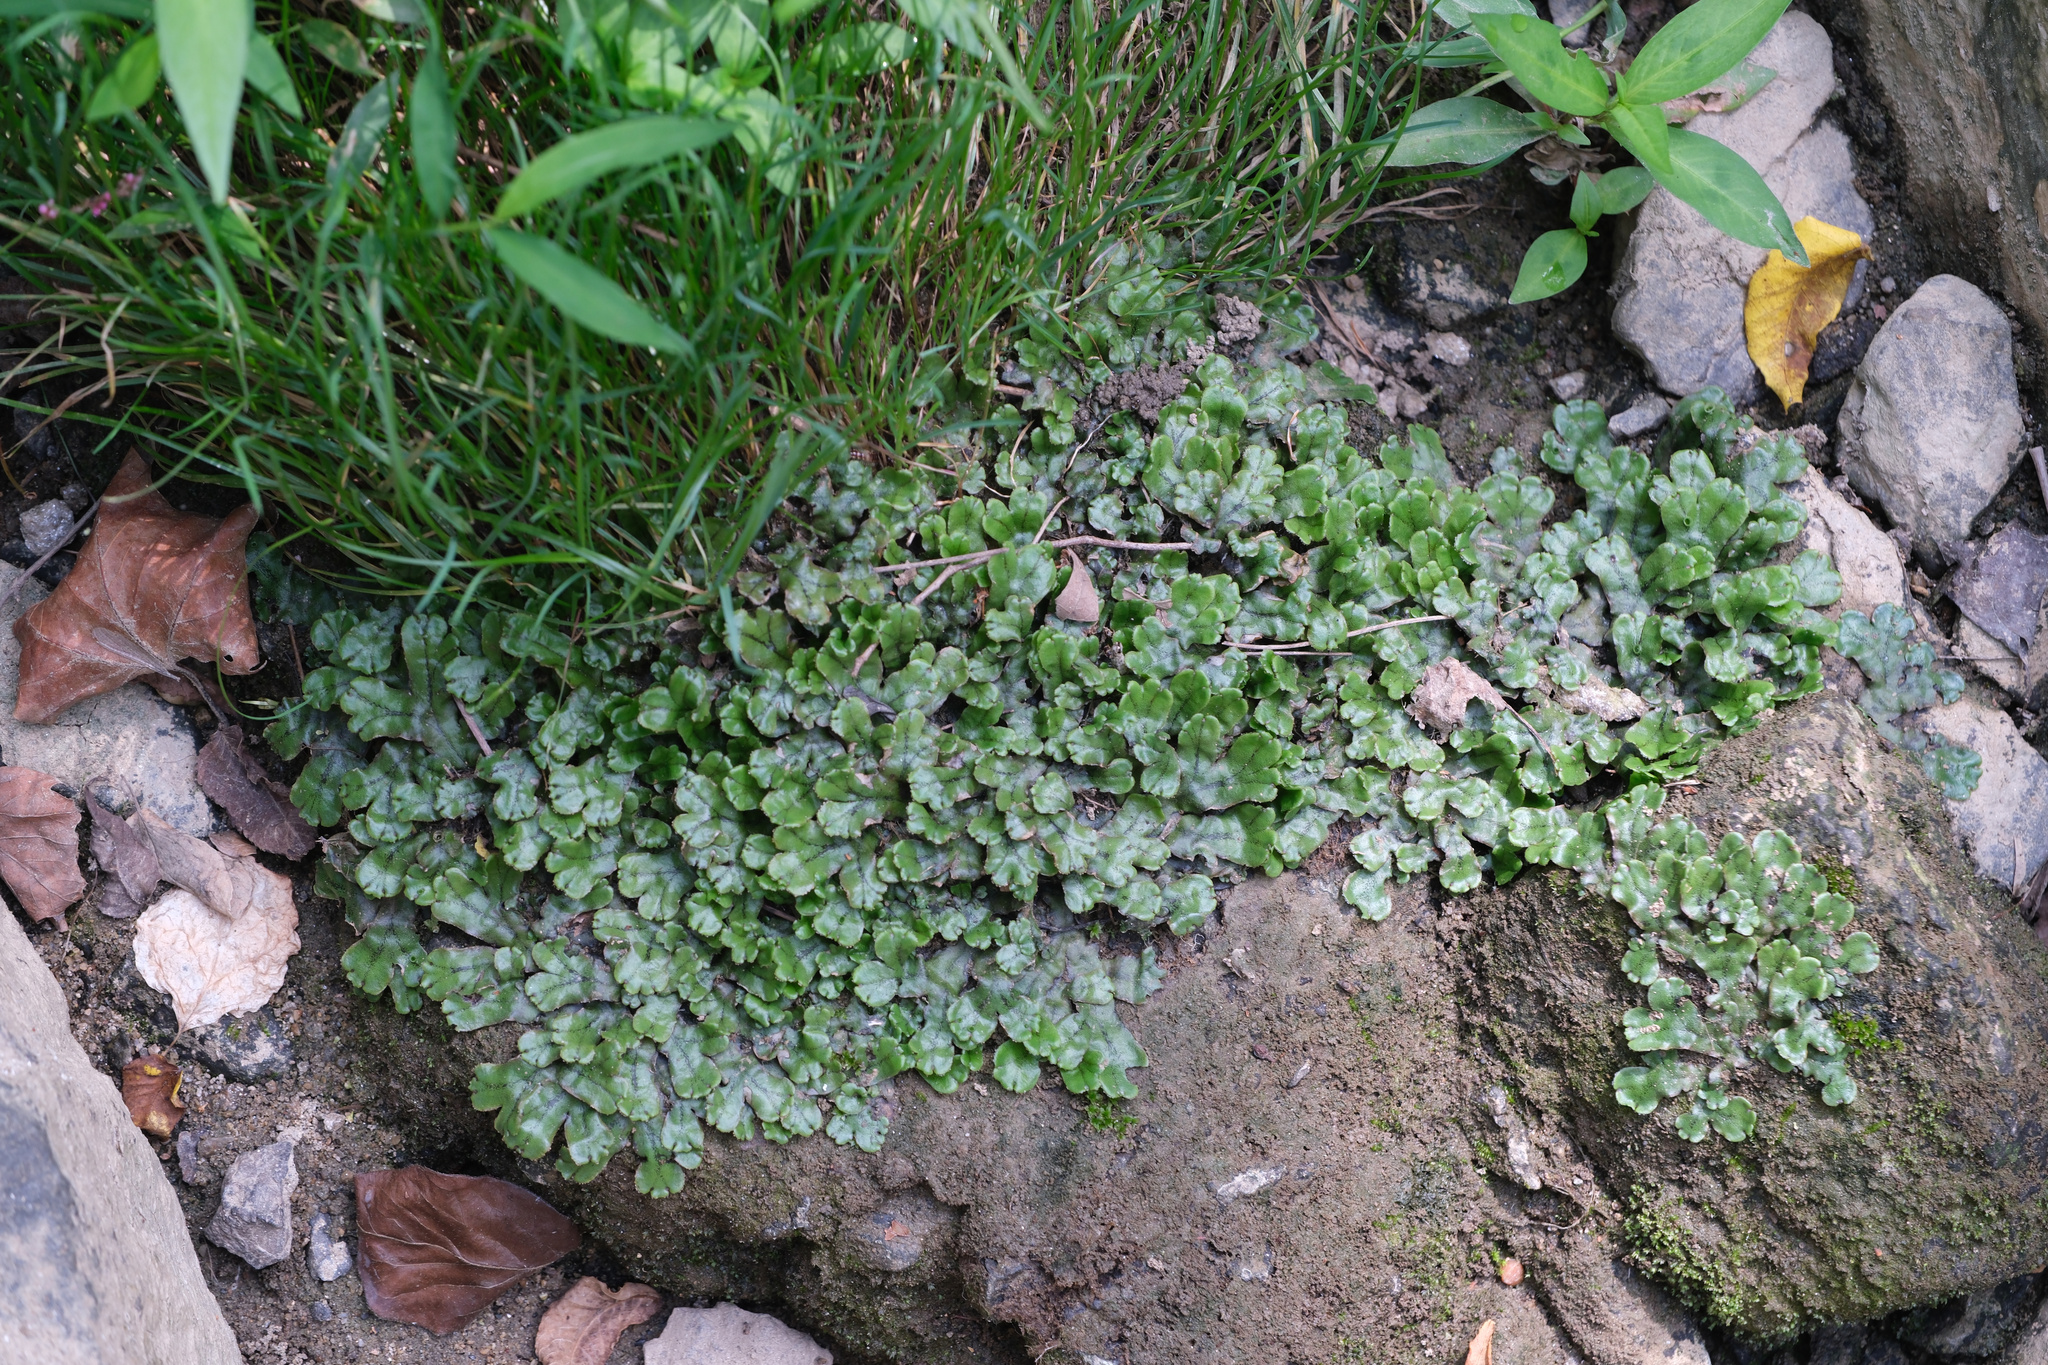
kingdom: Plantae
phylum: Marchantiophyta
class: Marchantiopsida
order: Marchantiales
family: Marchantiaceae
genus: Marchantia
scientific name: Marchantia polymorpha
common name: Common liverwort
